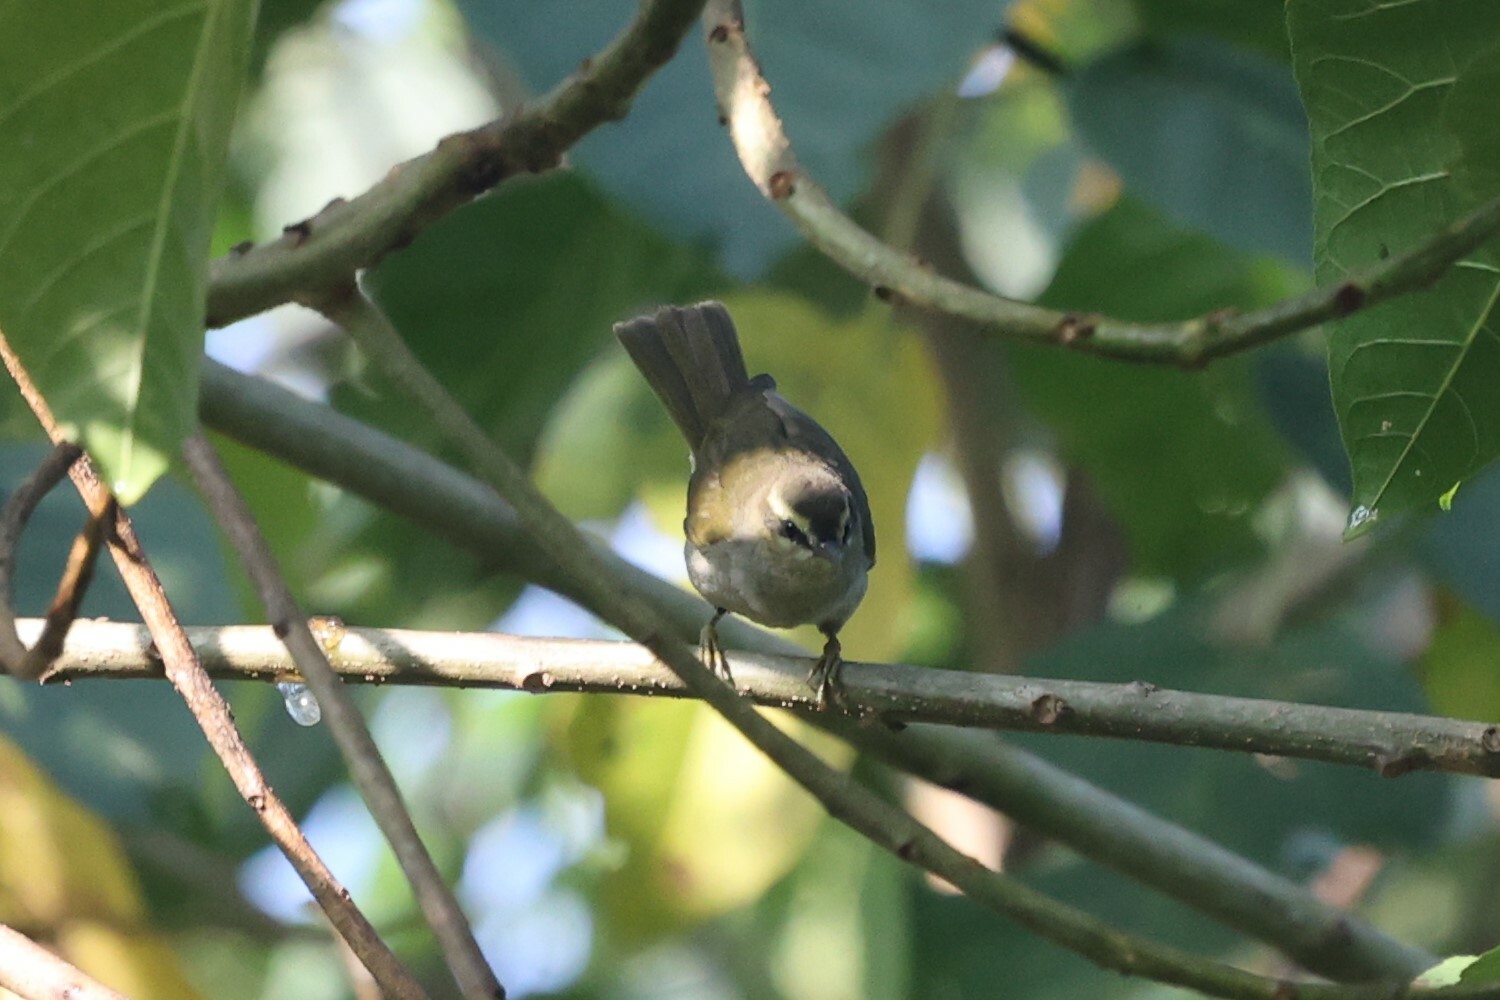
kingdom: Animalia
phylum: Chordata
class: Aves
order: Passeriformes
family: Cettiidae
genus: Hylia
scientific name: Hylia prasina
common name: Green hylia
